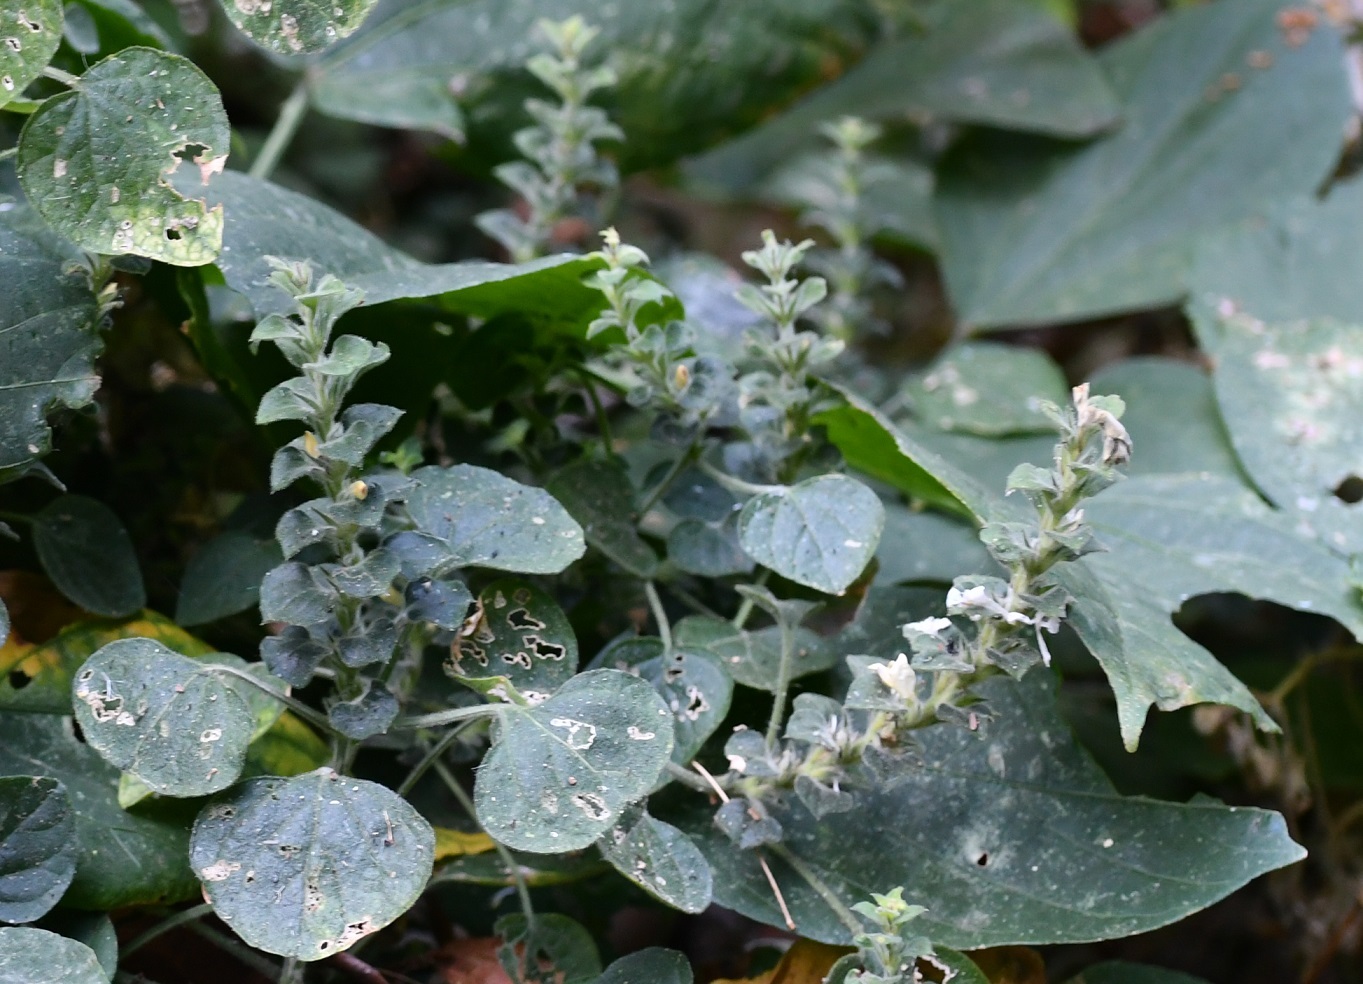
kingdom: Plantae
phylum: Tracheophyta
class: Magnoliopsida
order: Lamiales
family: Acanthaceae
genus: Tetramerium
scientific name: Tetramerium nemorum
